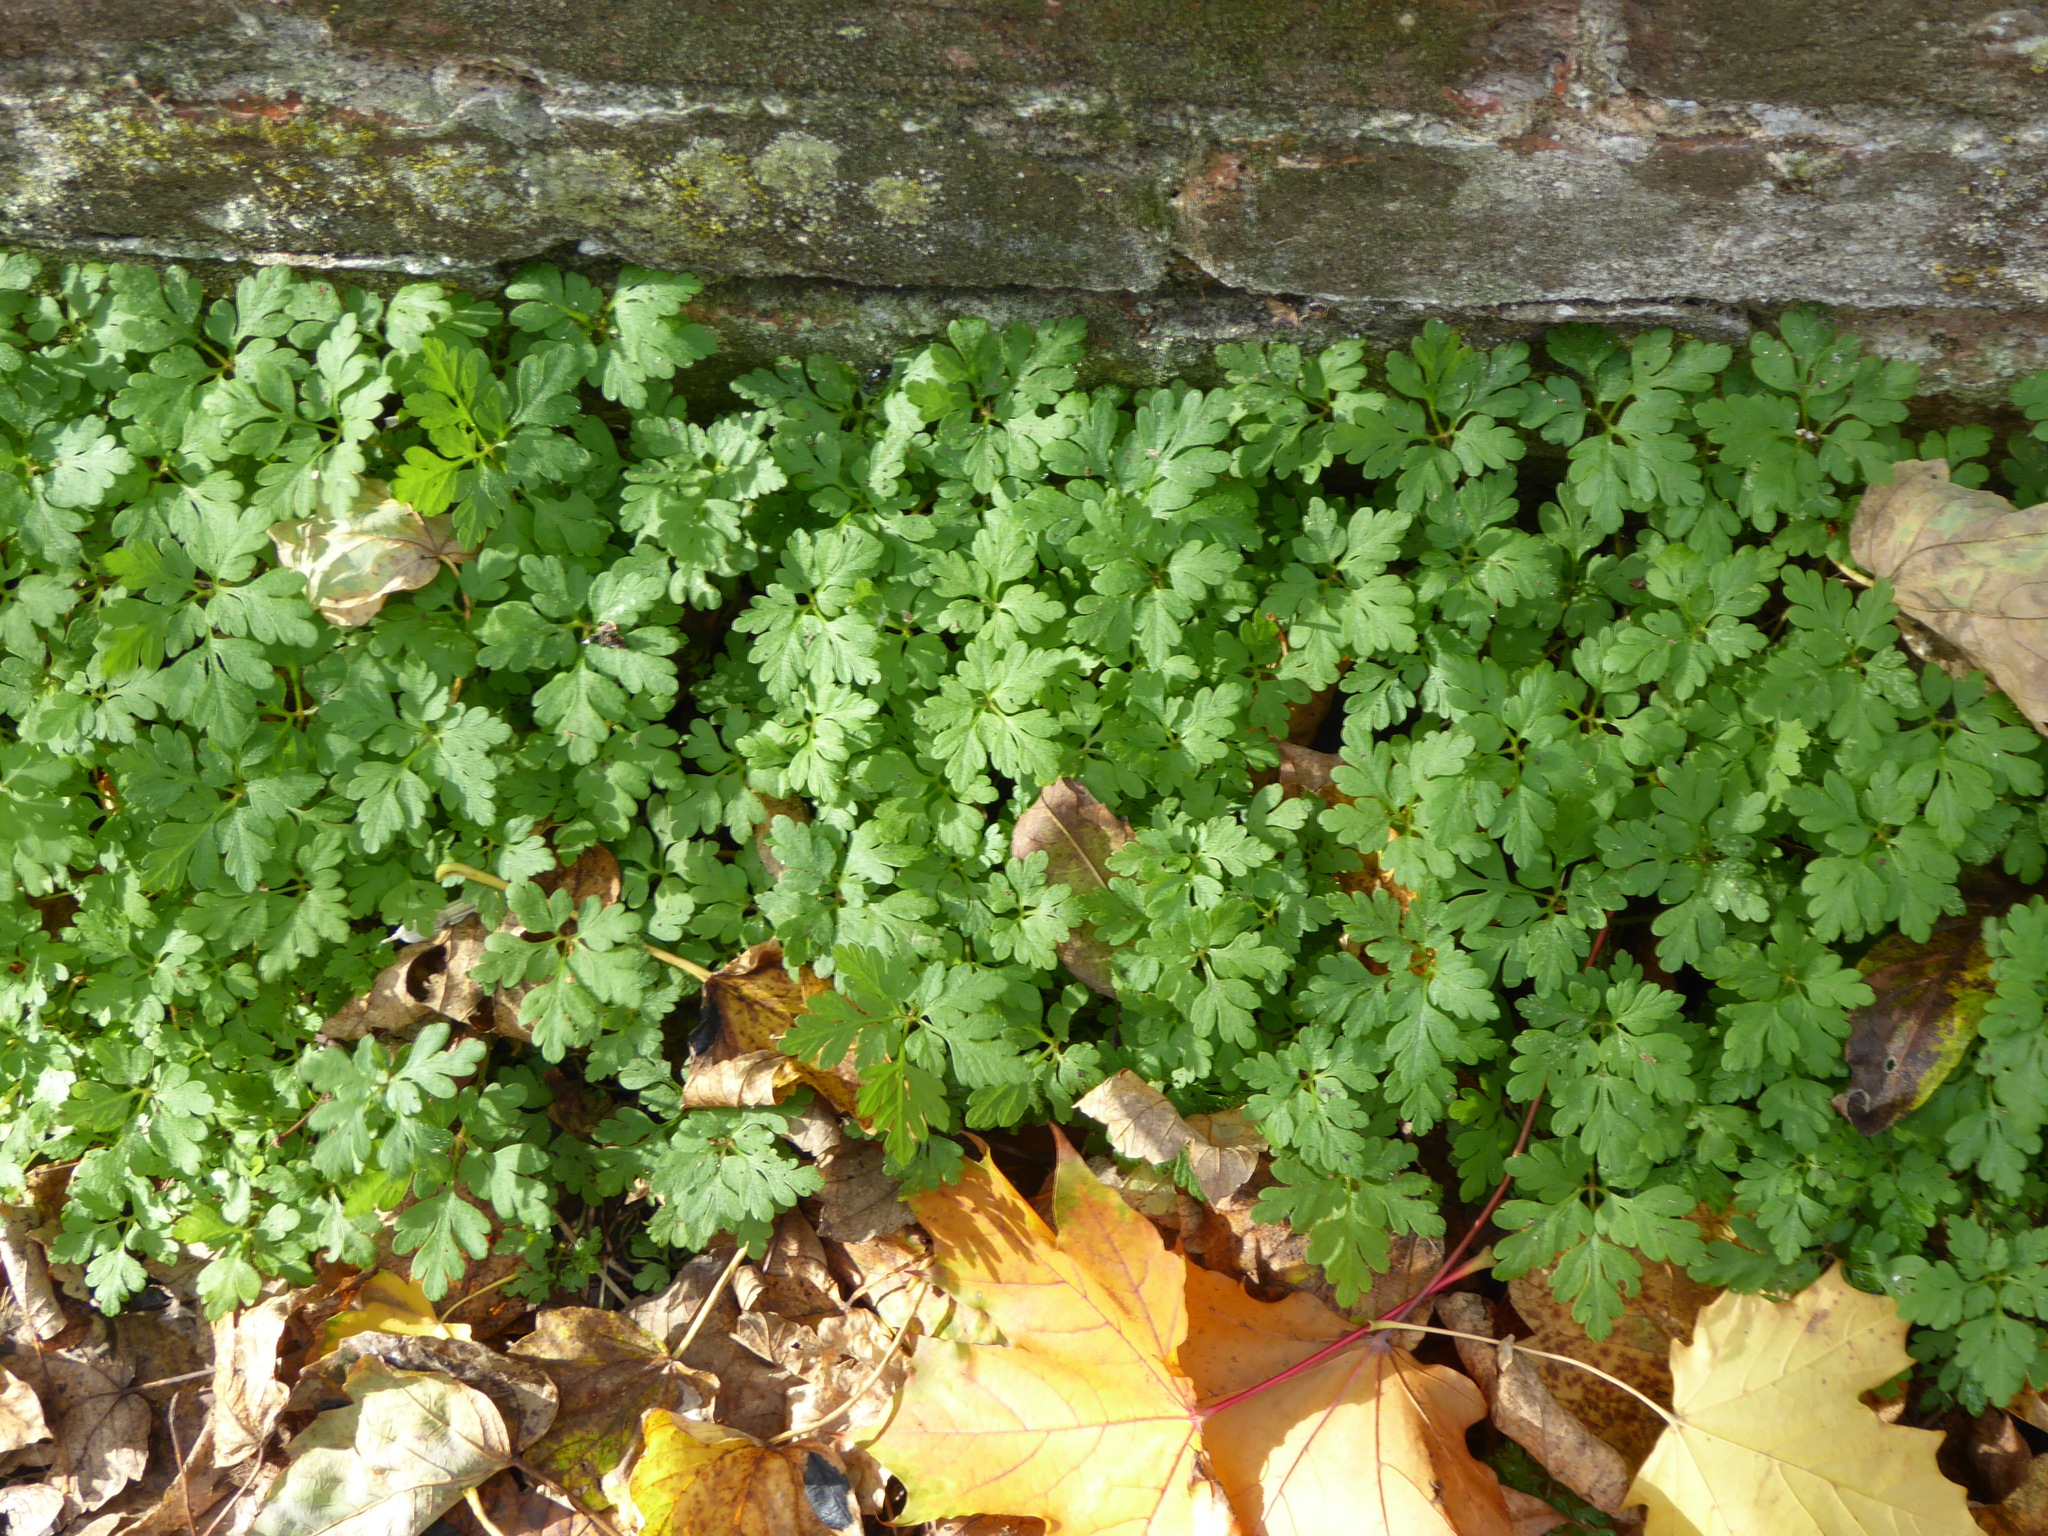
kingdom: Plantae
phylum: Tracheophyta
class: Magnoliopsida
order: Geraniales
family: Geraniaceae
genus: Geranium
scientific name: Geranium robertianum
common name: Herb-robert
